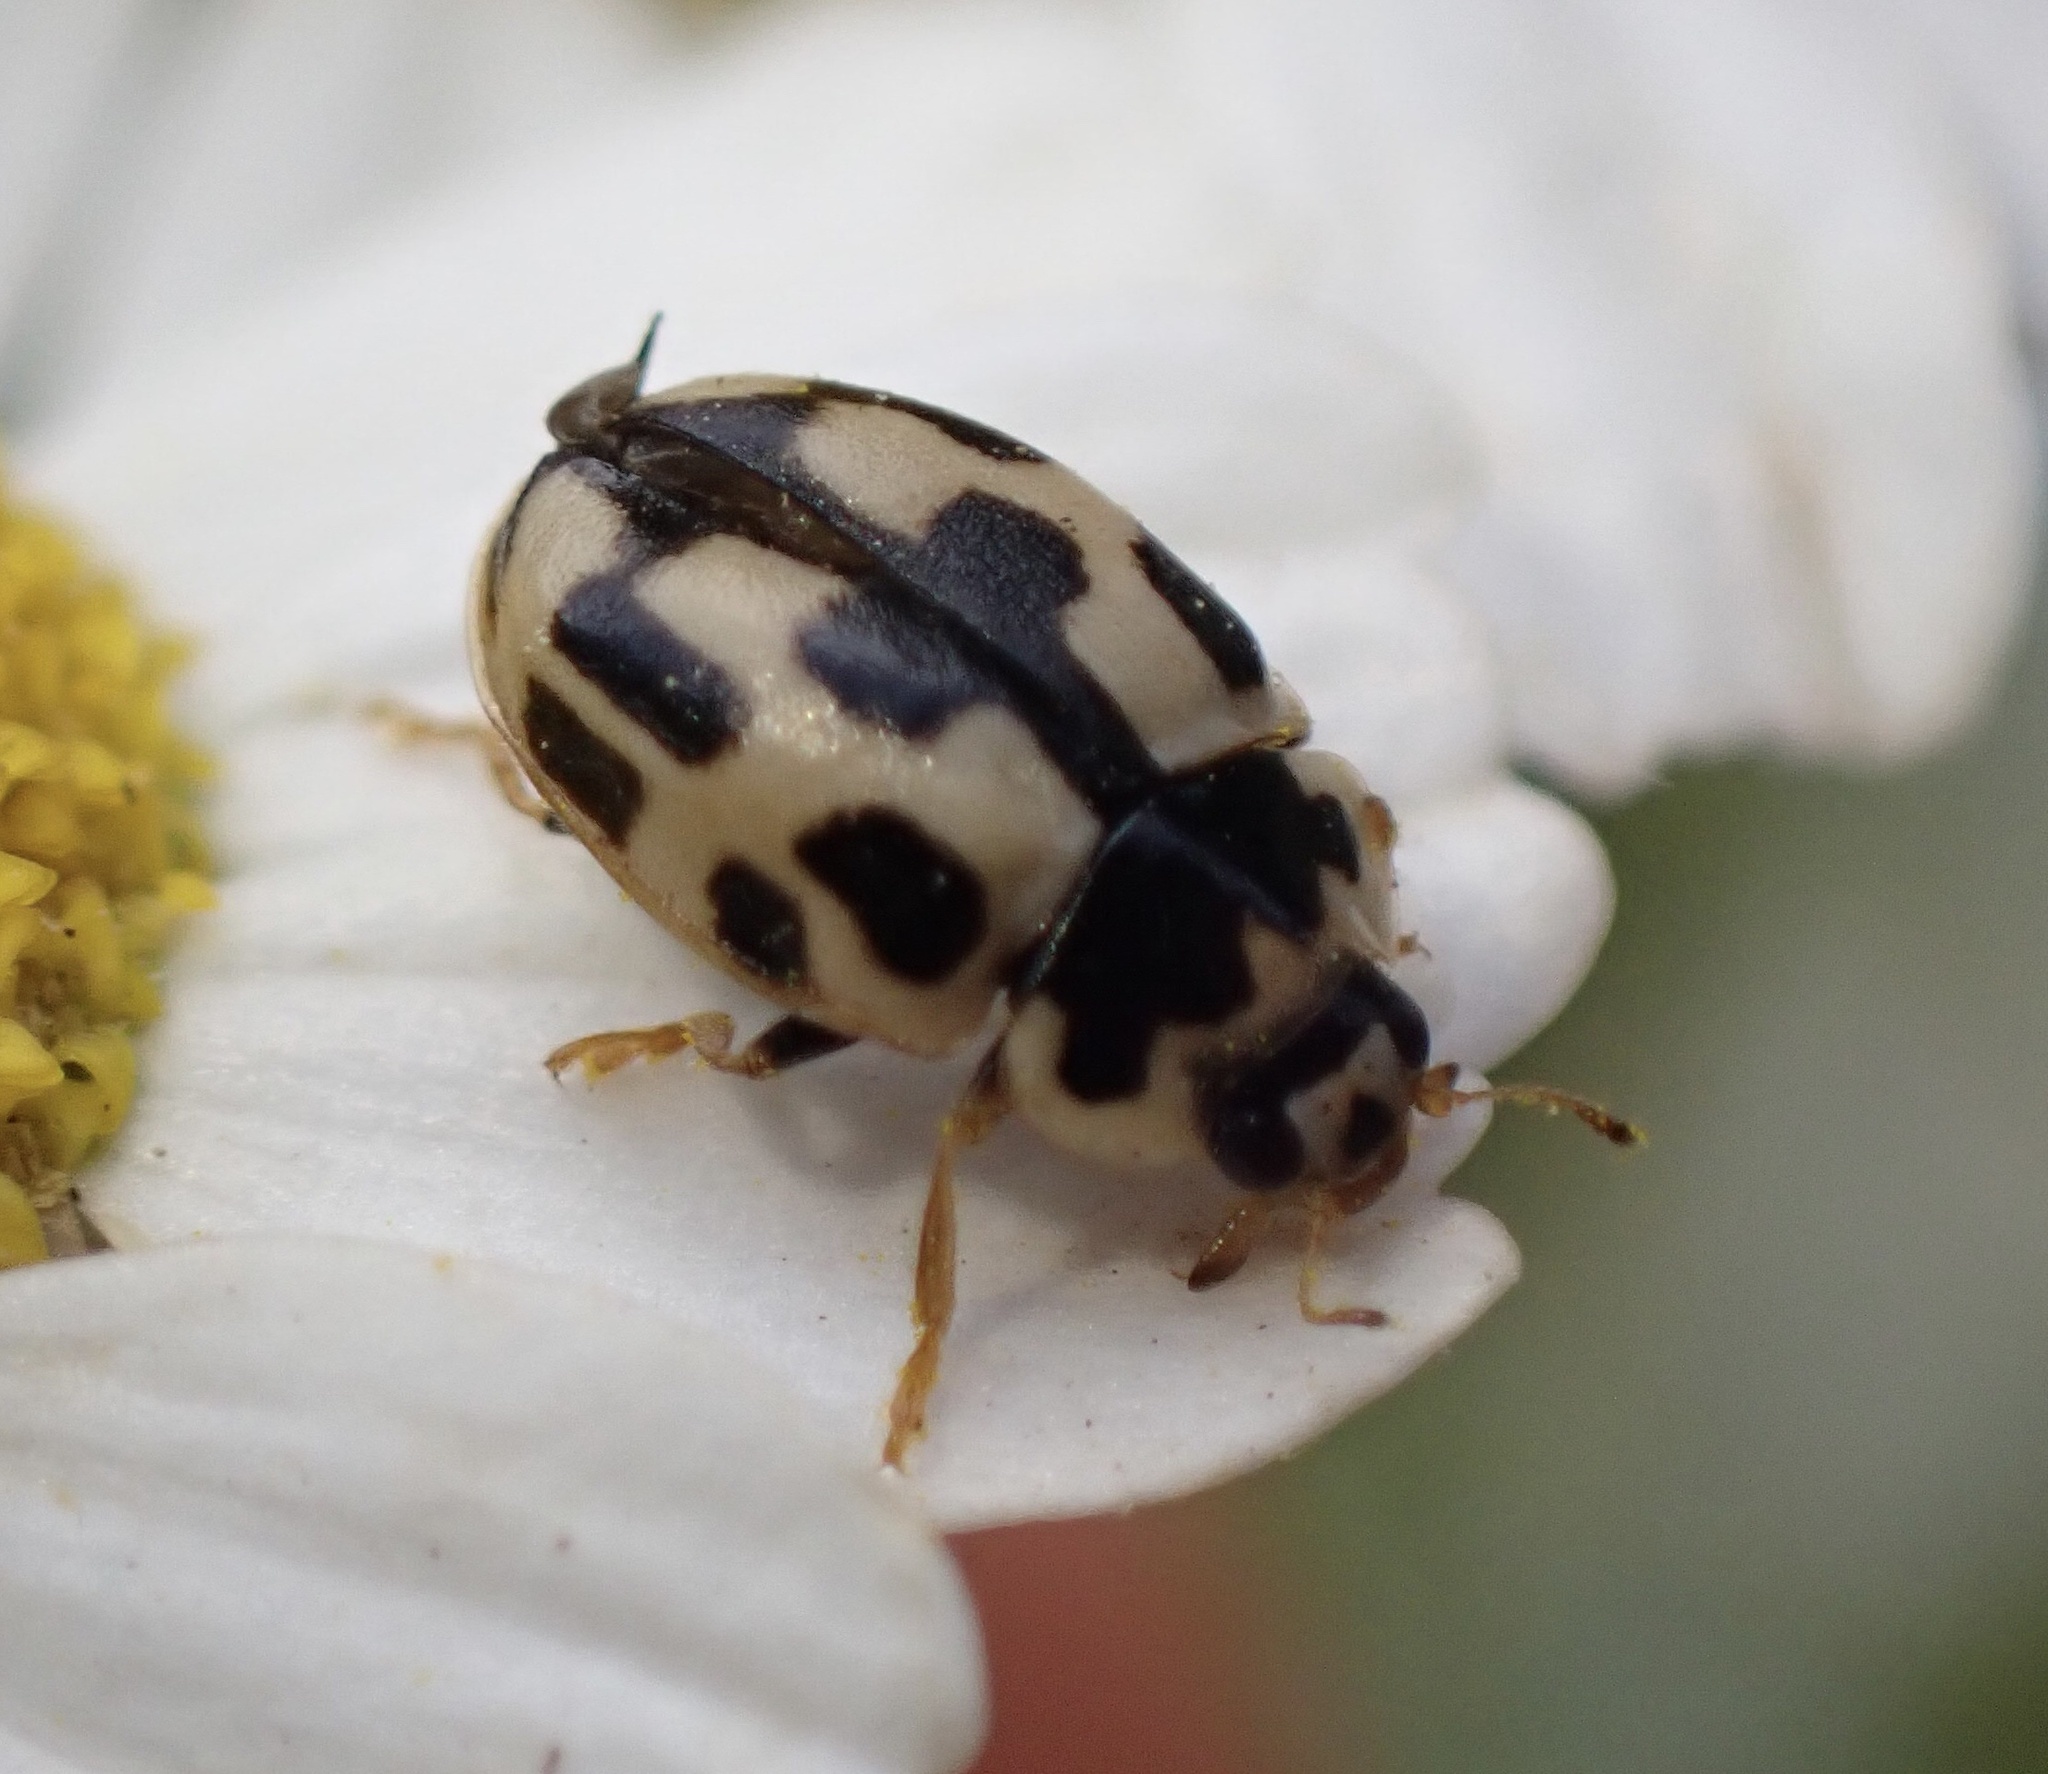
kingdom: Animalia
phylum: Arthropoda
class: Insecta
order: Coleoptera
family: Coccinellidae
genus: Propylaea
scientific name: Propylaea quatuordecimpunctata
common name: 14-spotted ladybird beetle
